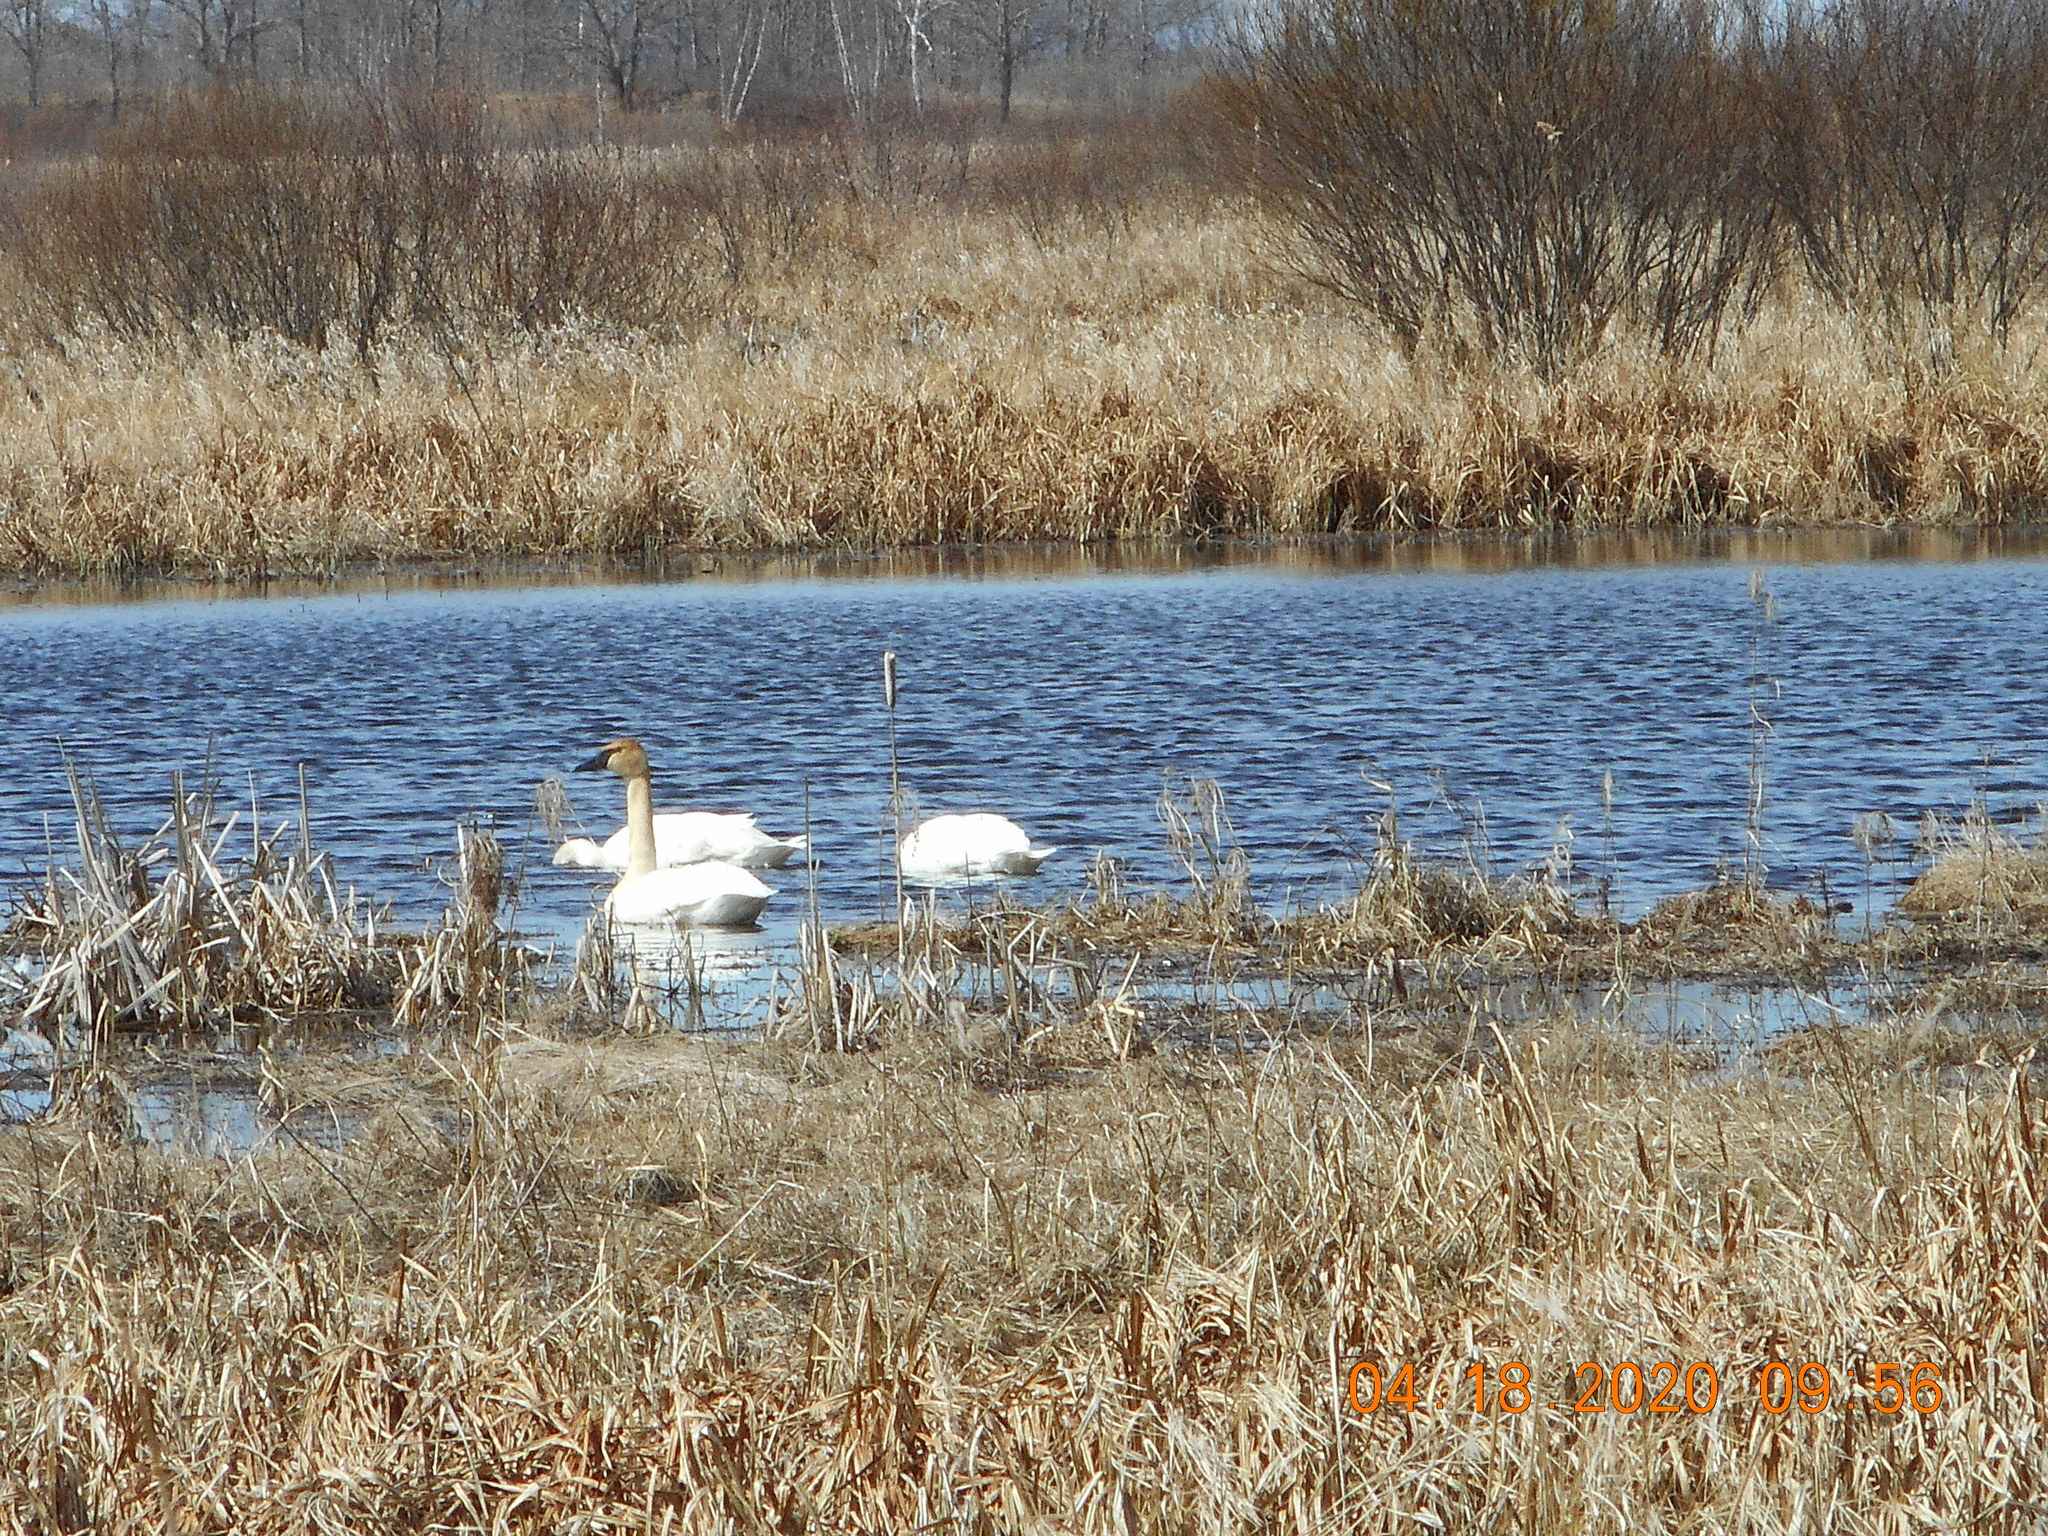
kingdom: Animalia
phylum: Chordata
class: Aves
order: Anseriformes
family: Anatidae
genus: Cygnus
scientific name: Cygnus buccinator
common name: Trumpeter swan
